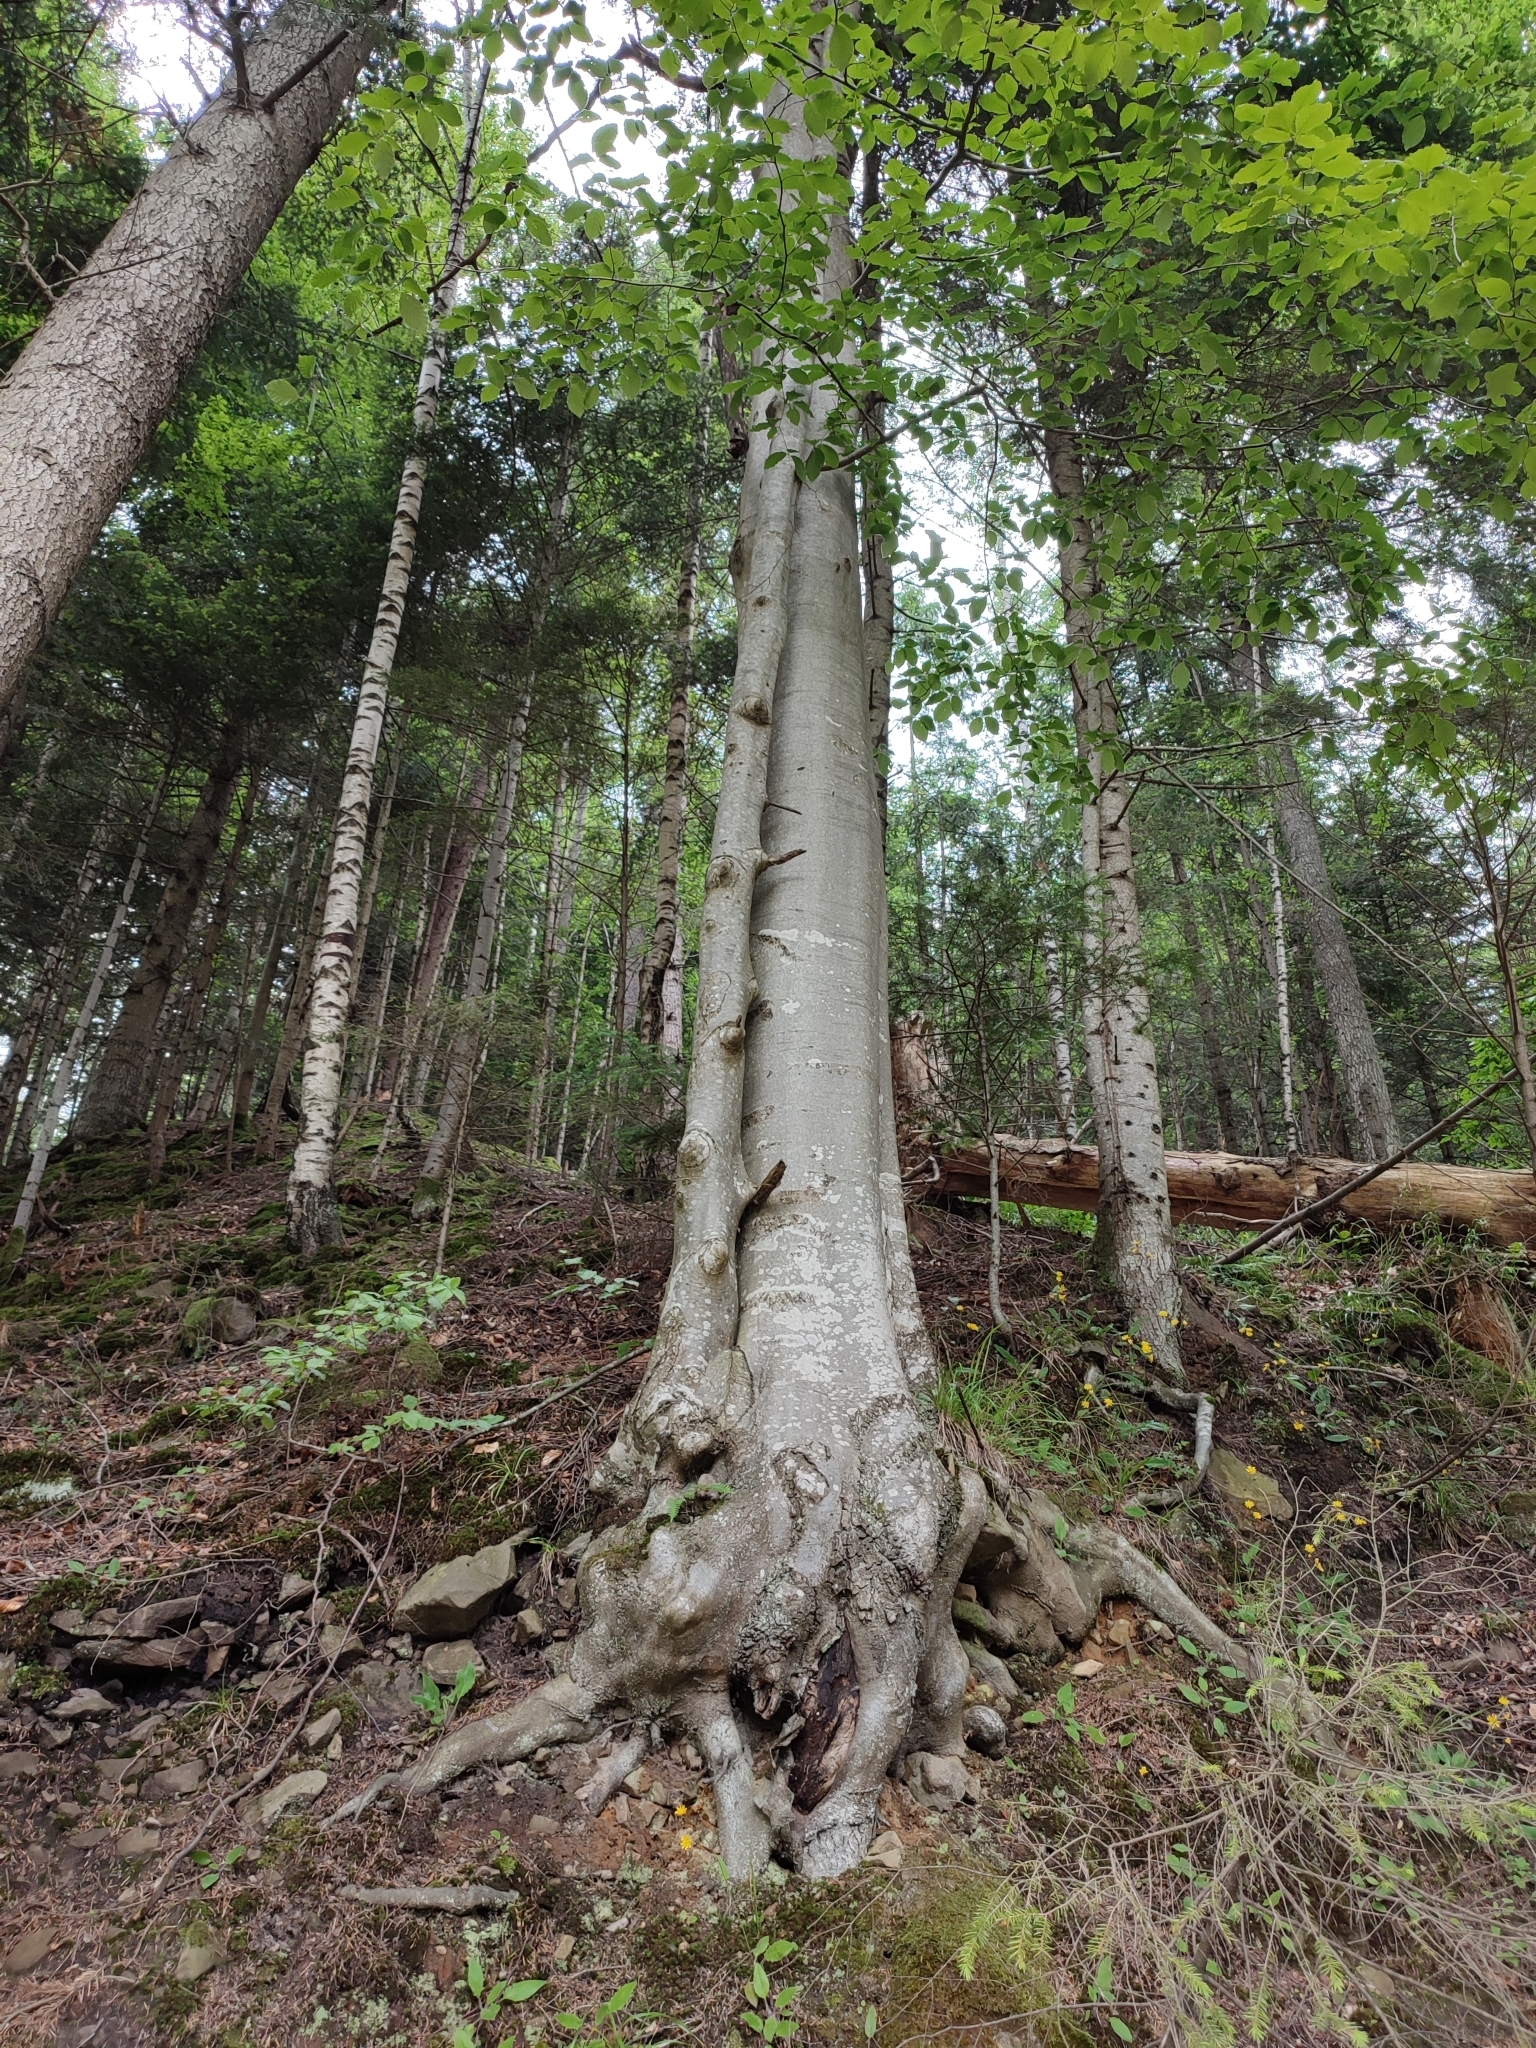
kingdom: Plantae
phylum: Tracheophyta
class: Magnoliopsida
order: Fagales
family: Fagaceae
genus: Fagus
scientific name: Fagus sylvatica
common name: Beech
